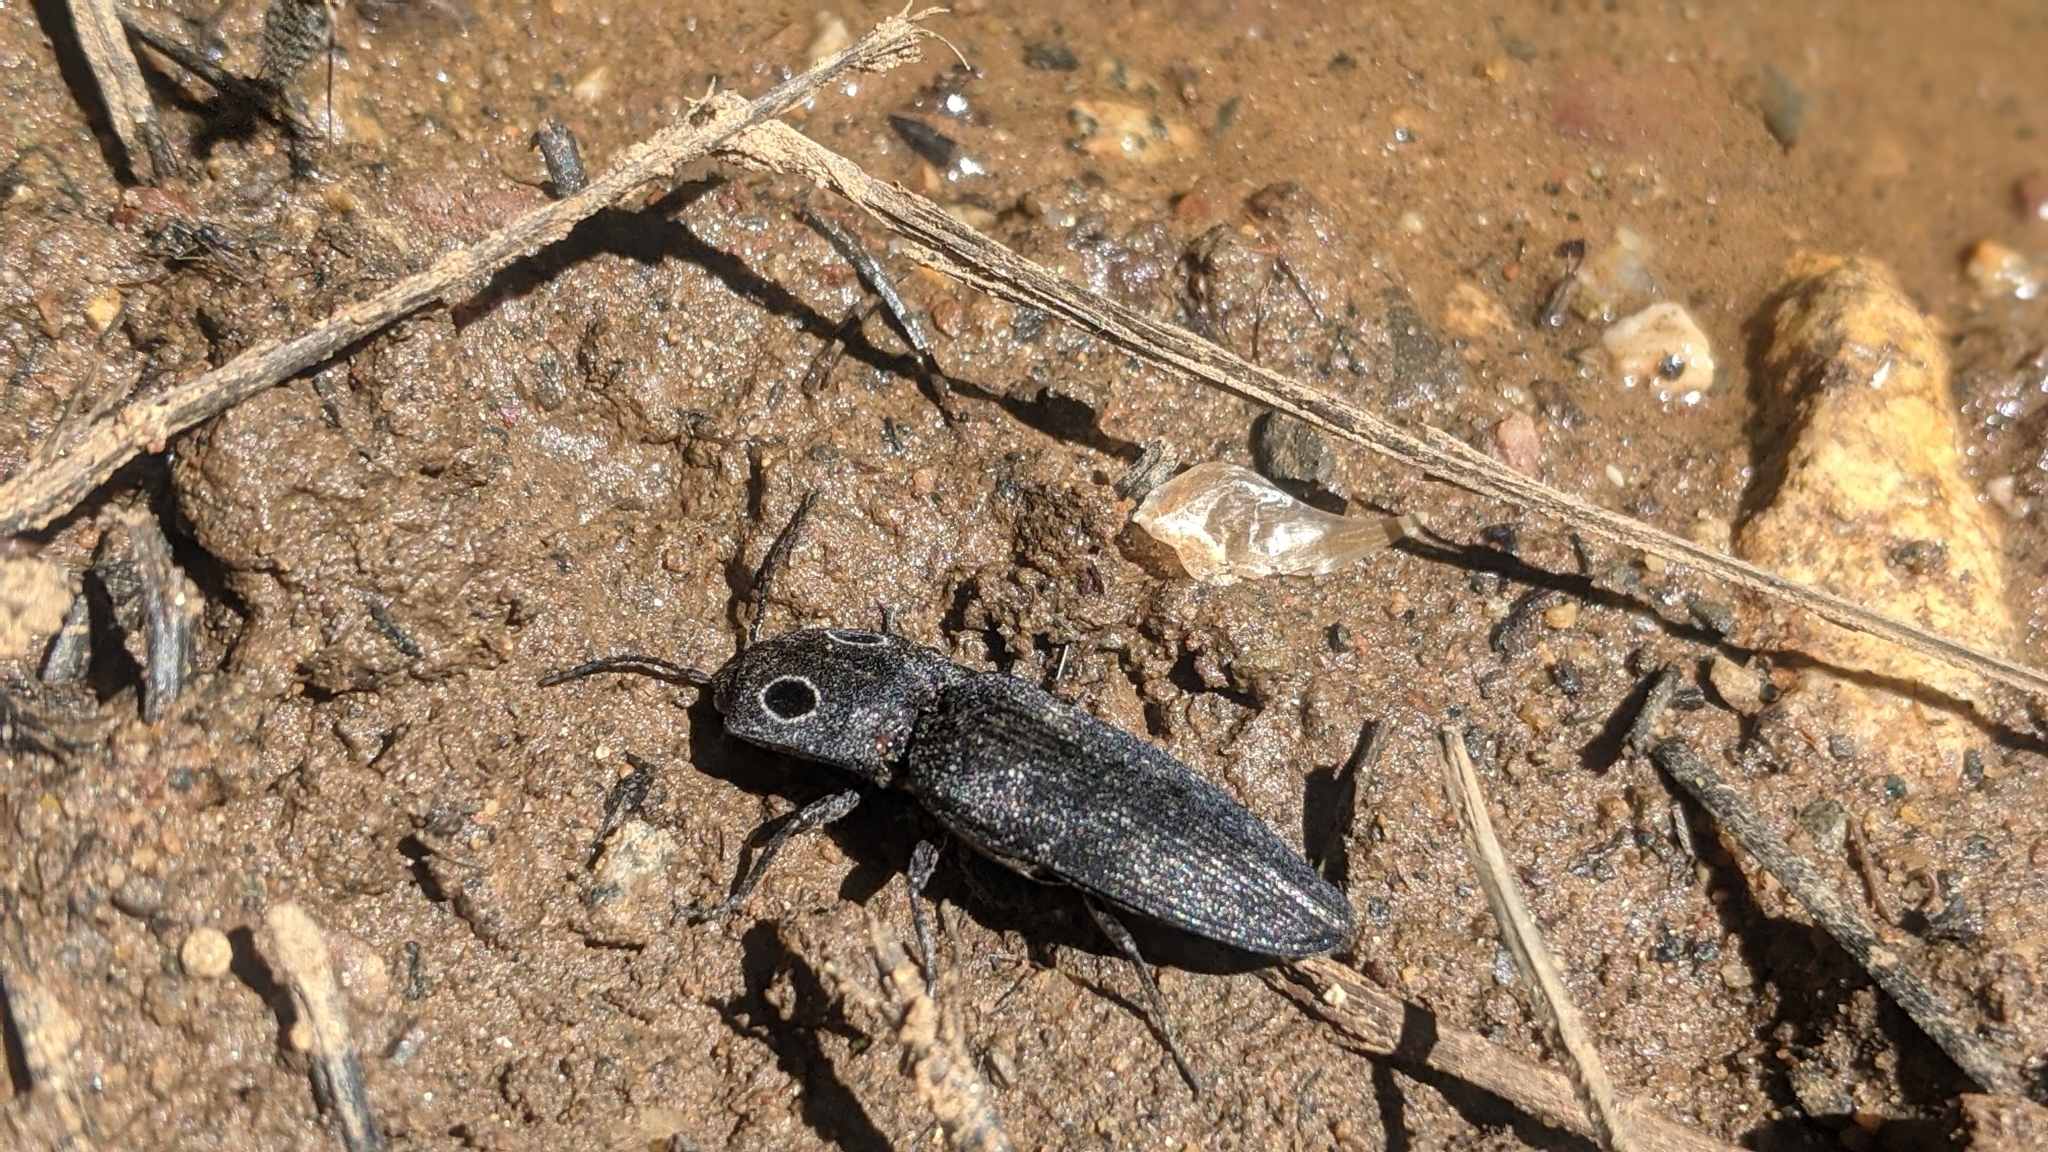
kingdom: Animalia
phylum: Arthropoda
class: Insecta
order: Coleoptera
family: Elateridae
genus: Alaus
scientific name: Alaus melanops
